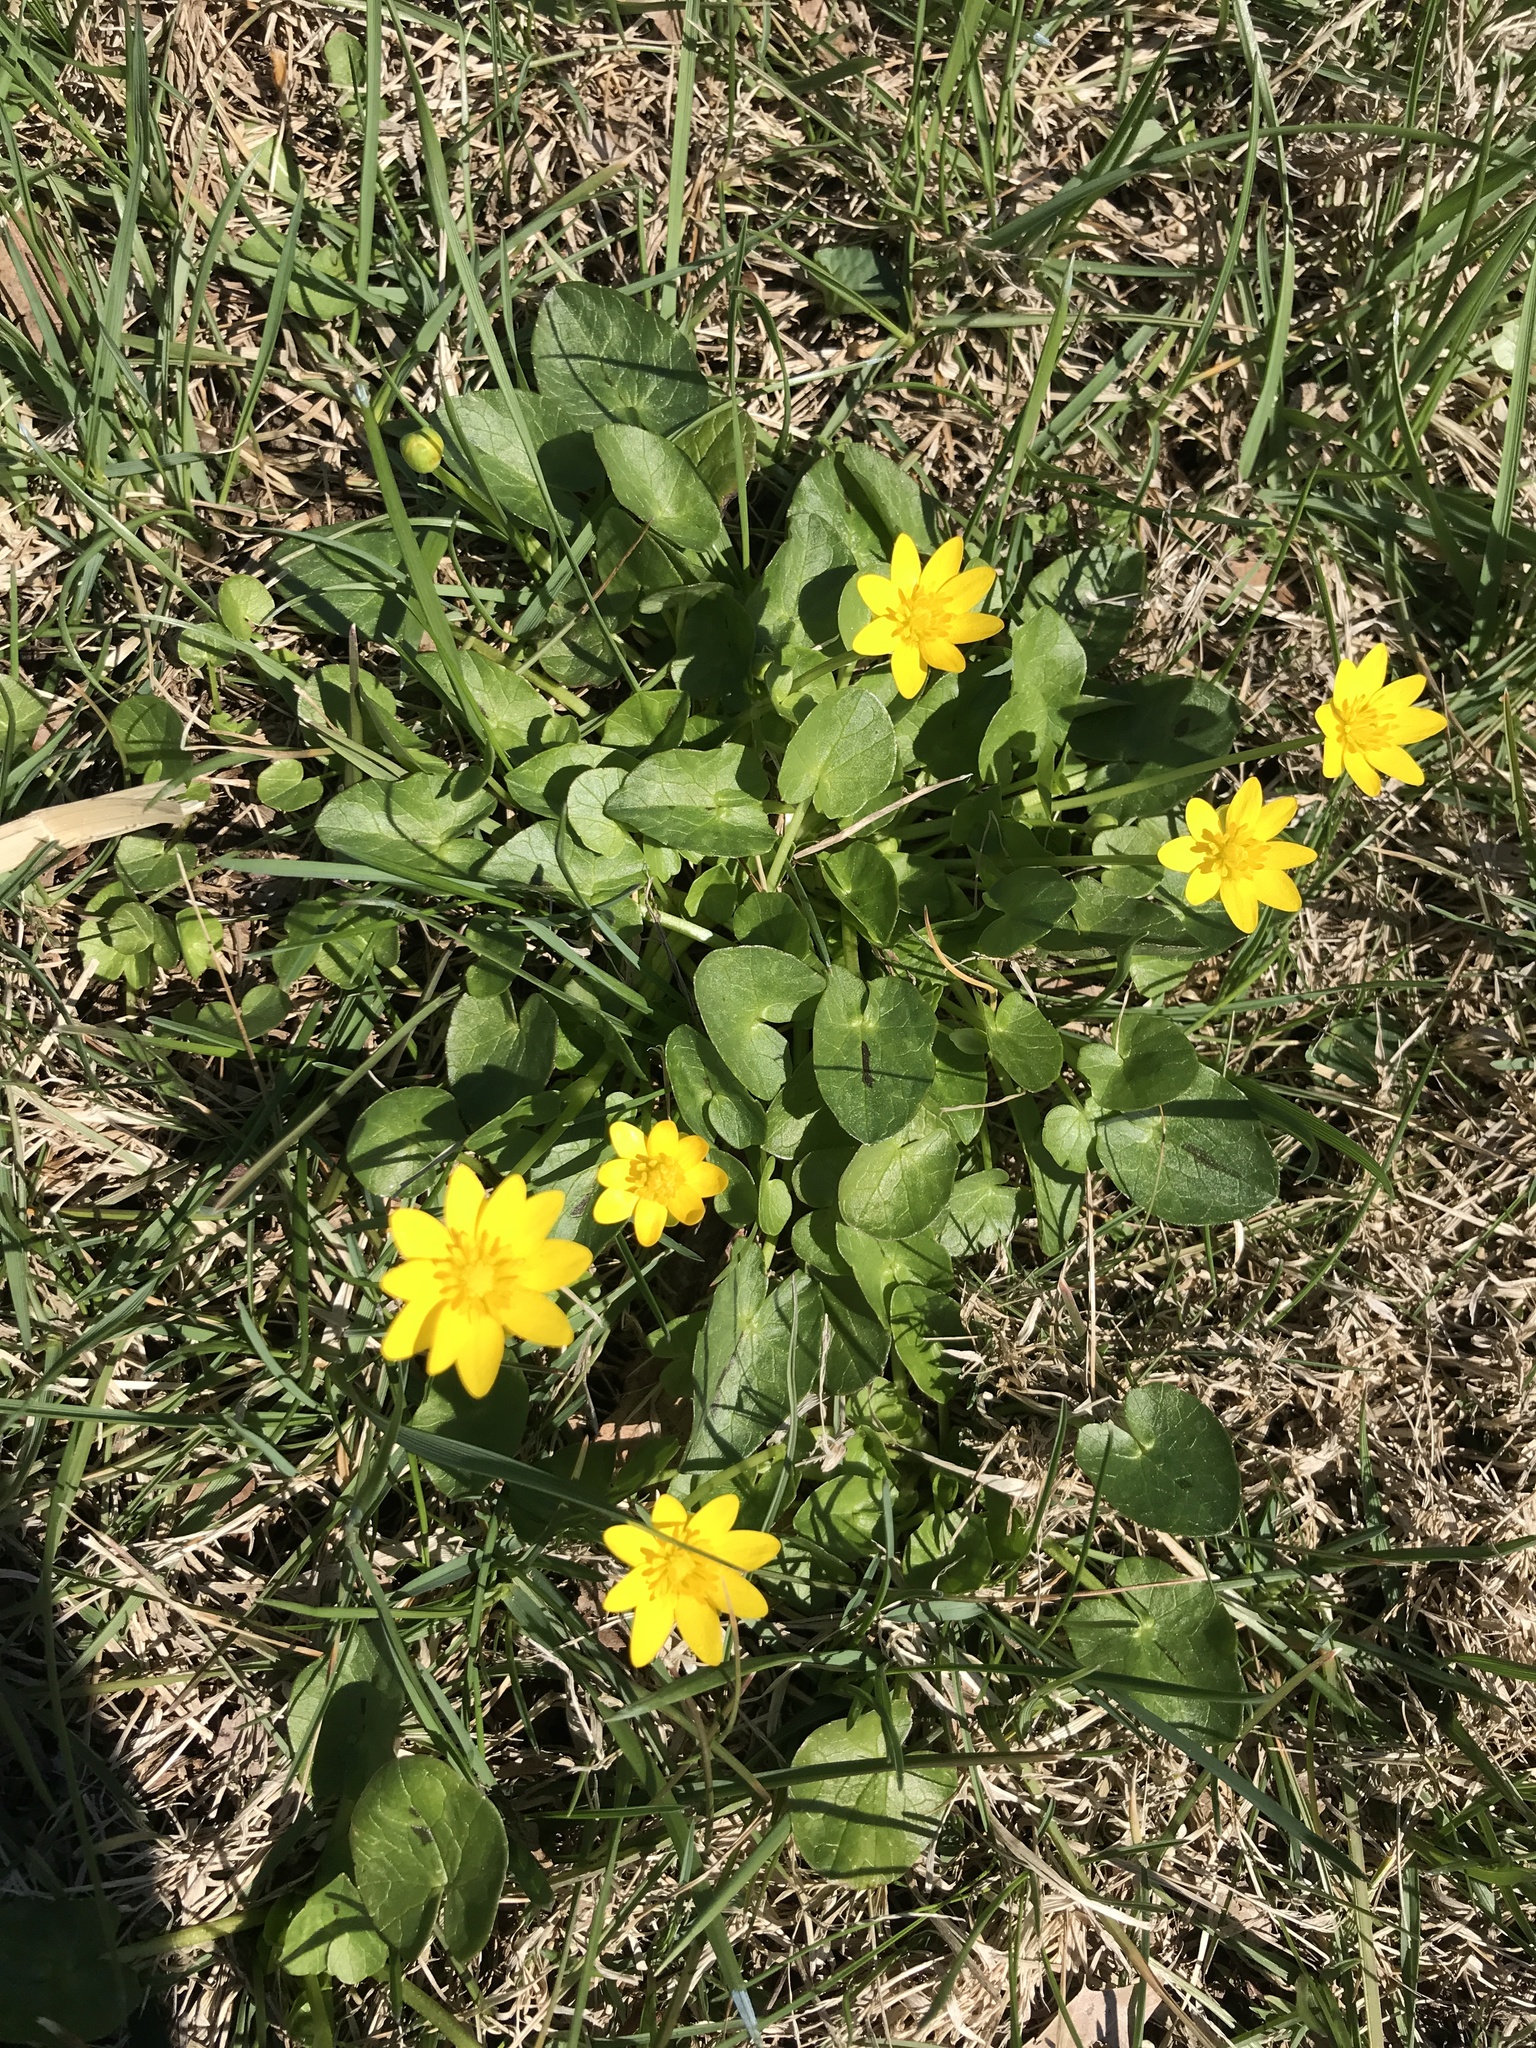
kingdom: Plantae
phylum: Tracheophyta
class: Magnoliopsida
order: Ranunculales
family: Ranunculaceae
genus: Ficaria
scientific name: Ficaria verna
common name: Lesser celandine
